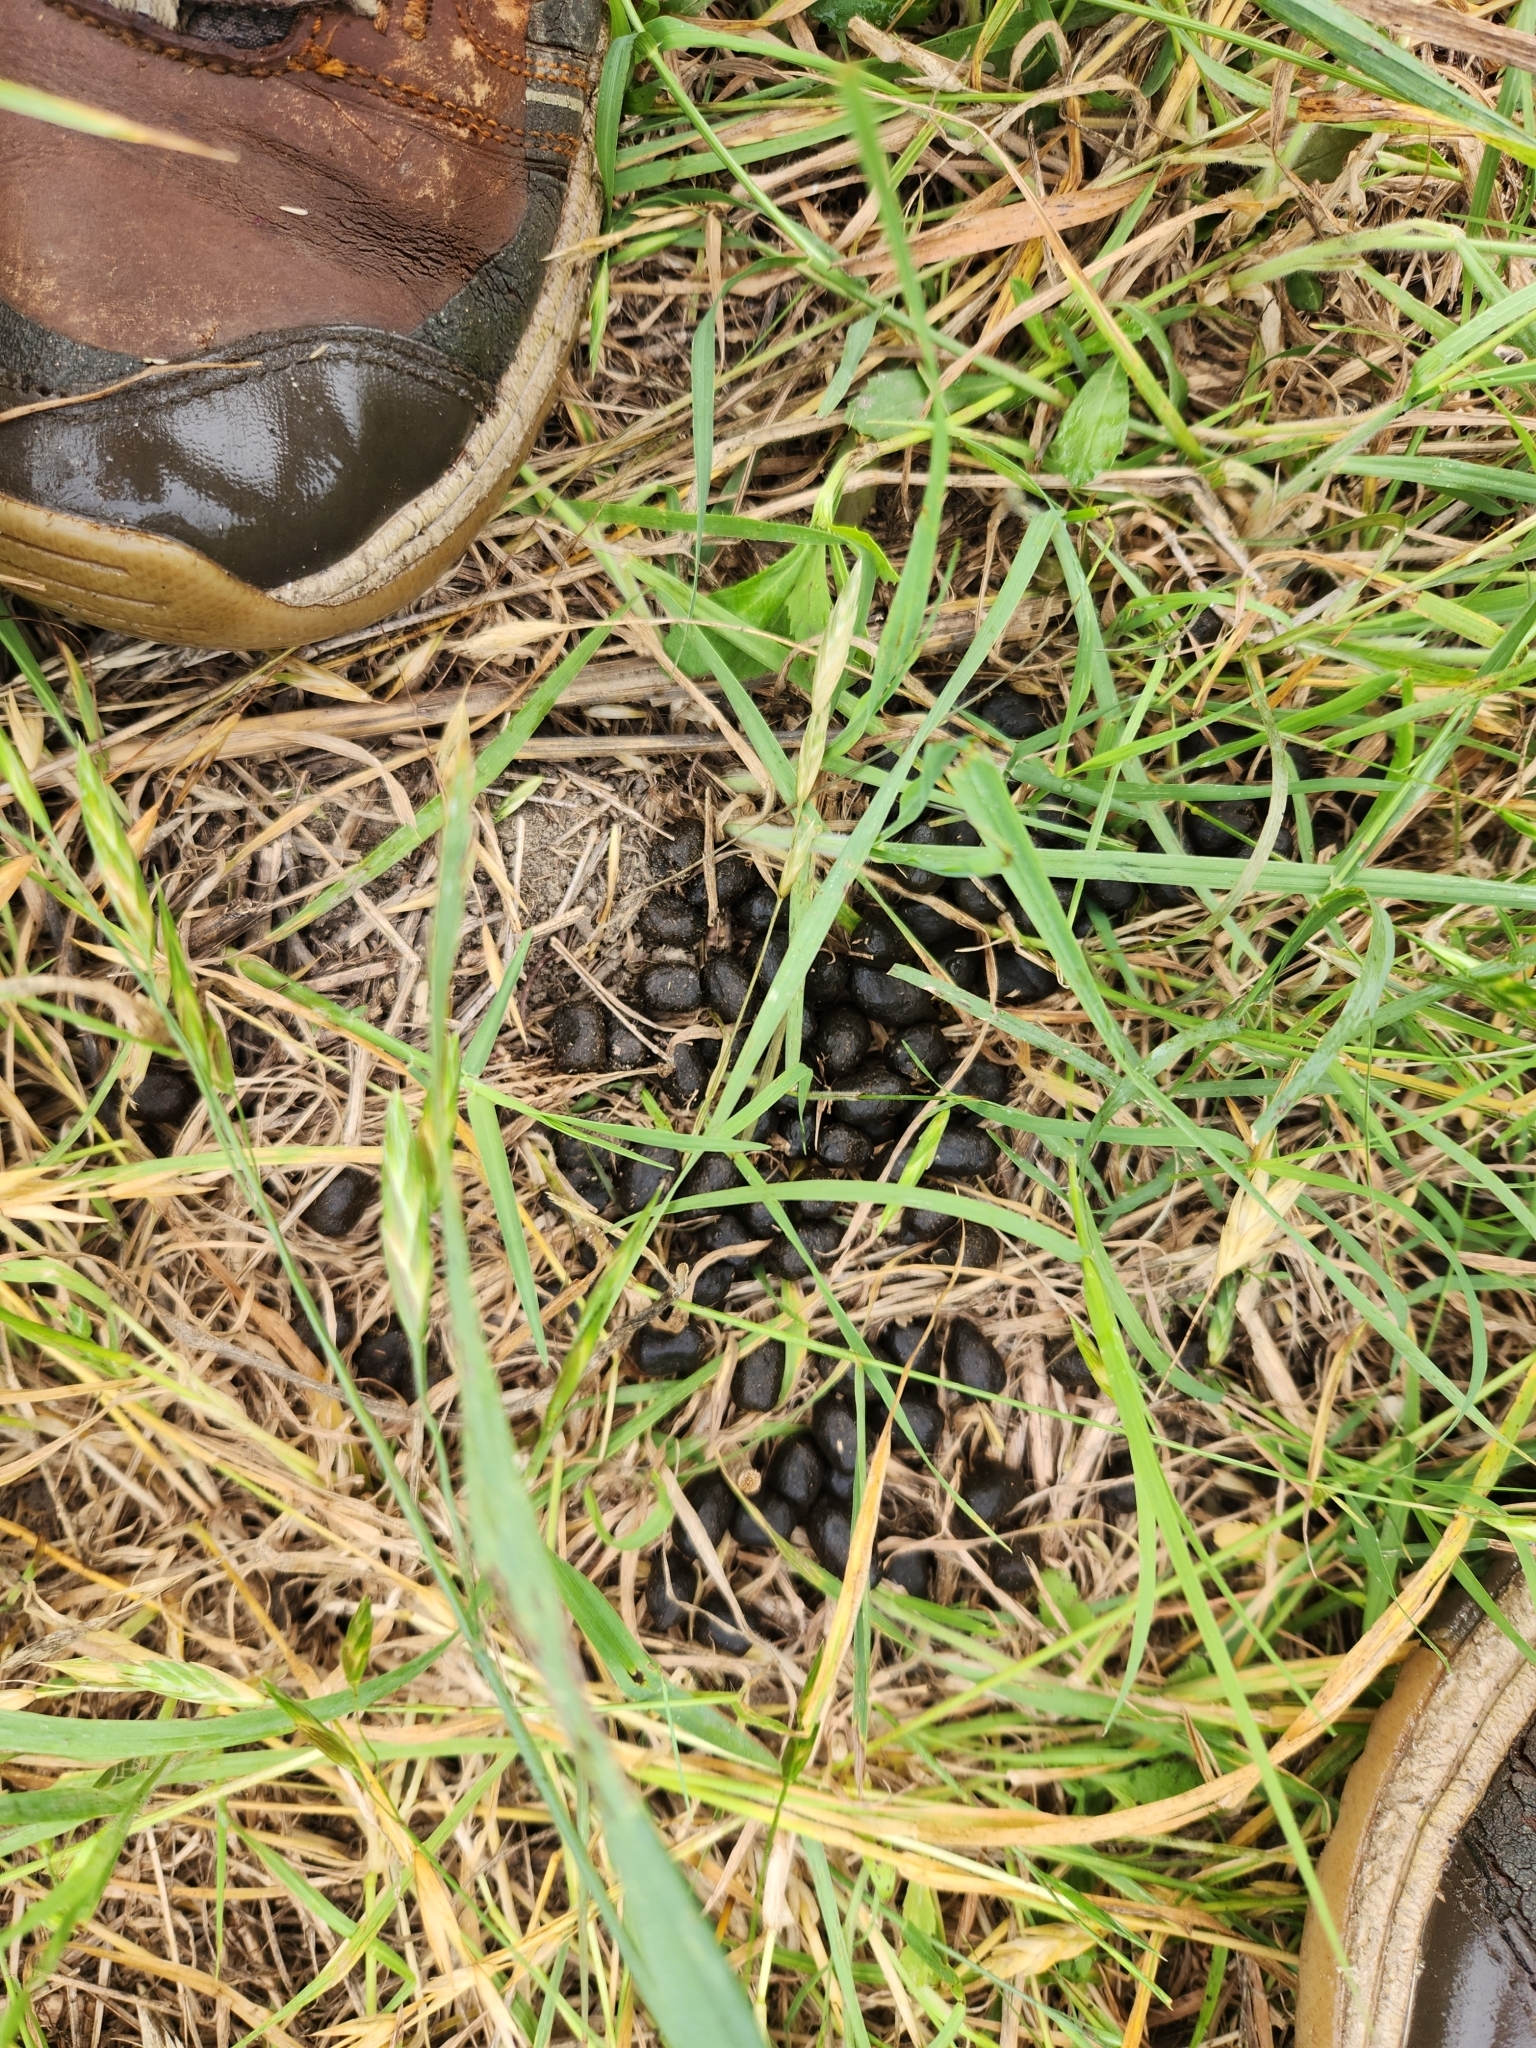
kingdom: Animalia
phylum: Chordata
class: Mammalia
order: Artiodactyla
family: Cervidae
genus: Odocoileus
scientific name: Odocoileus virginianus
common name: White-tailed deer
